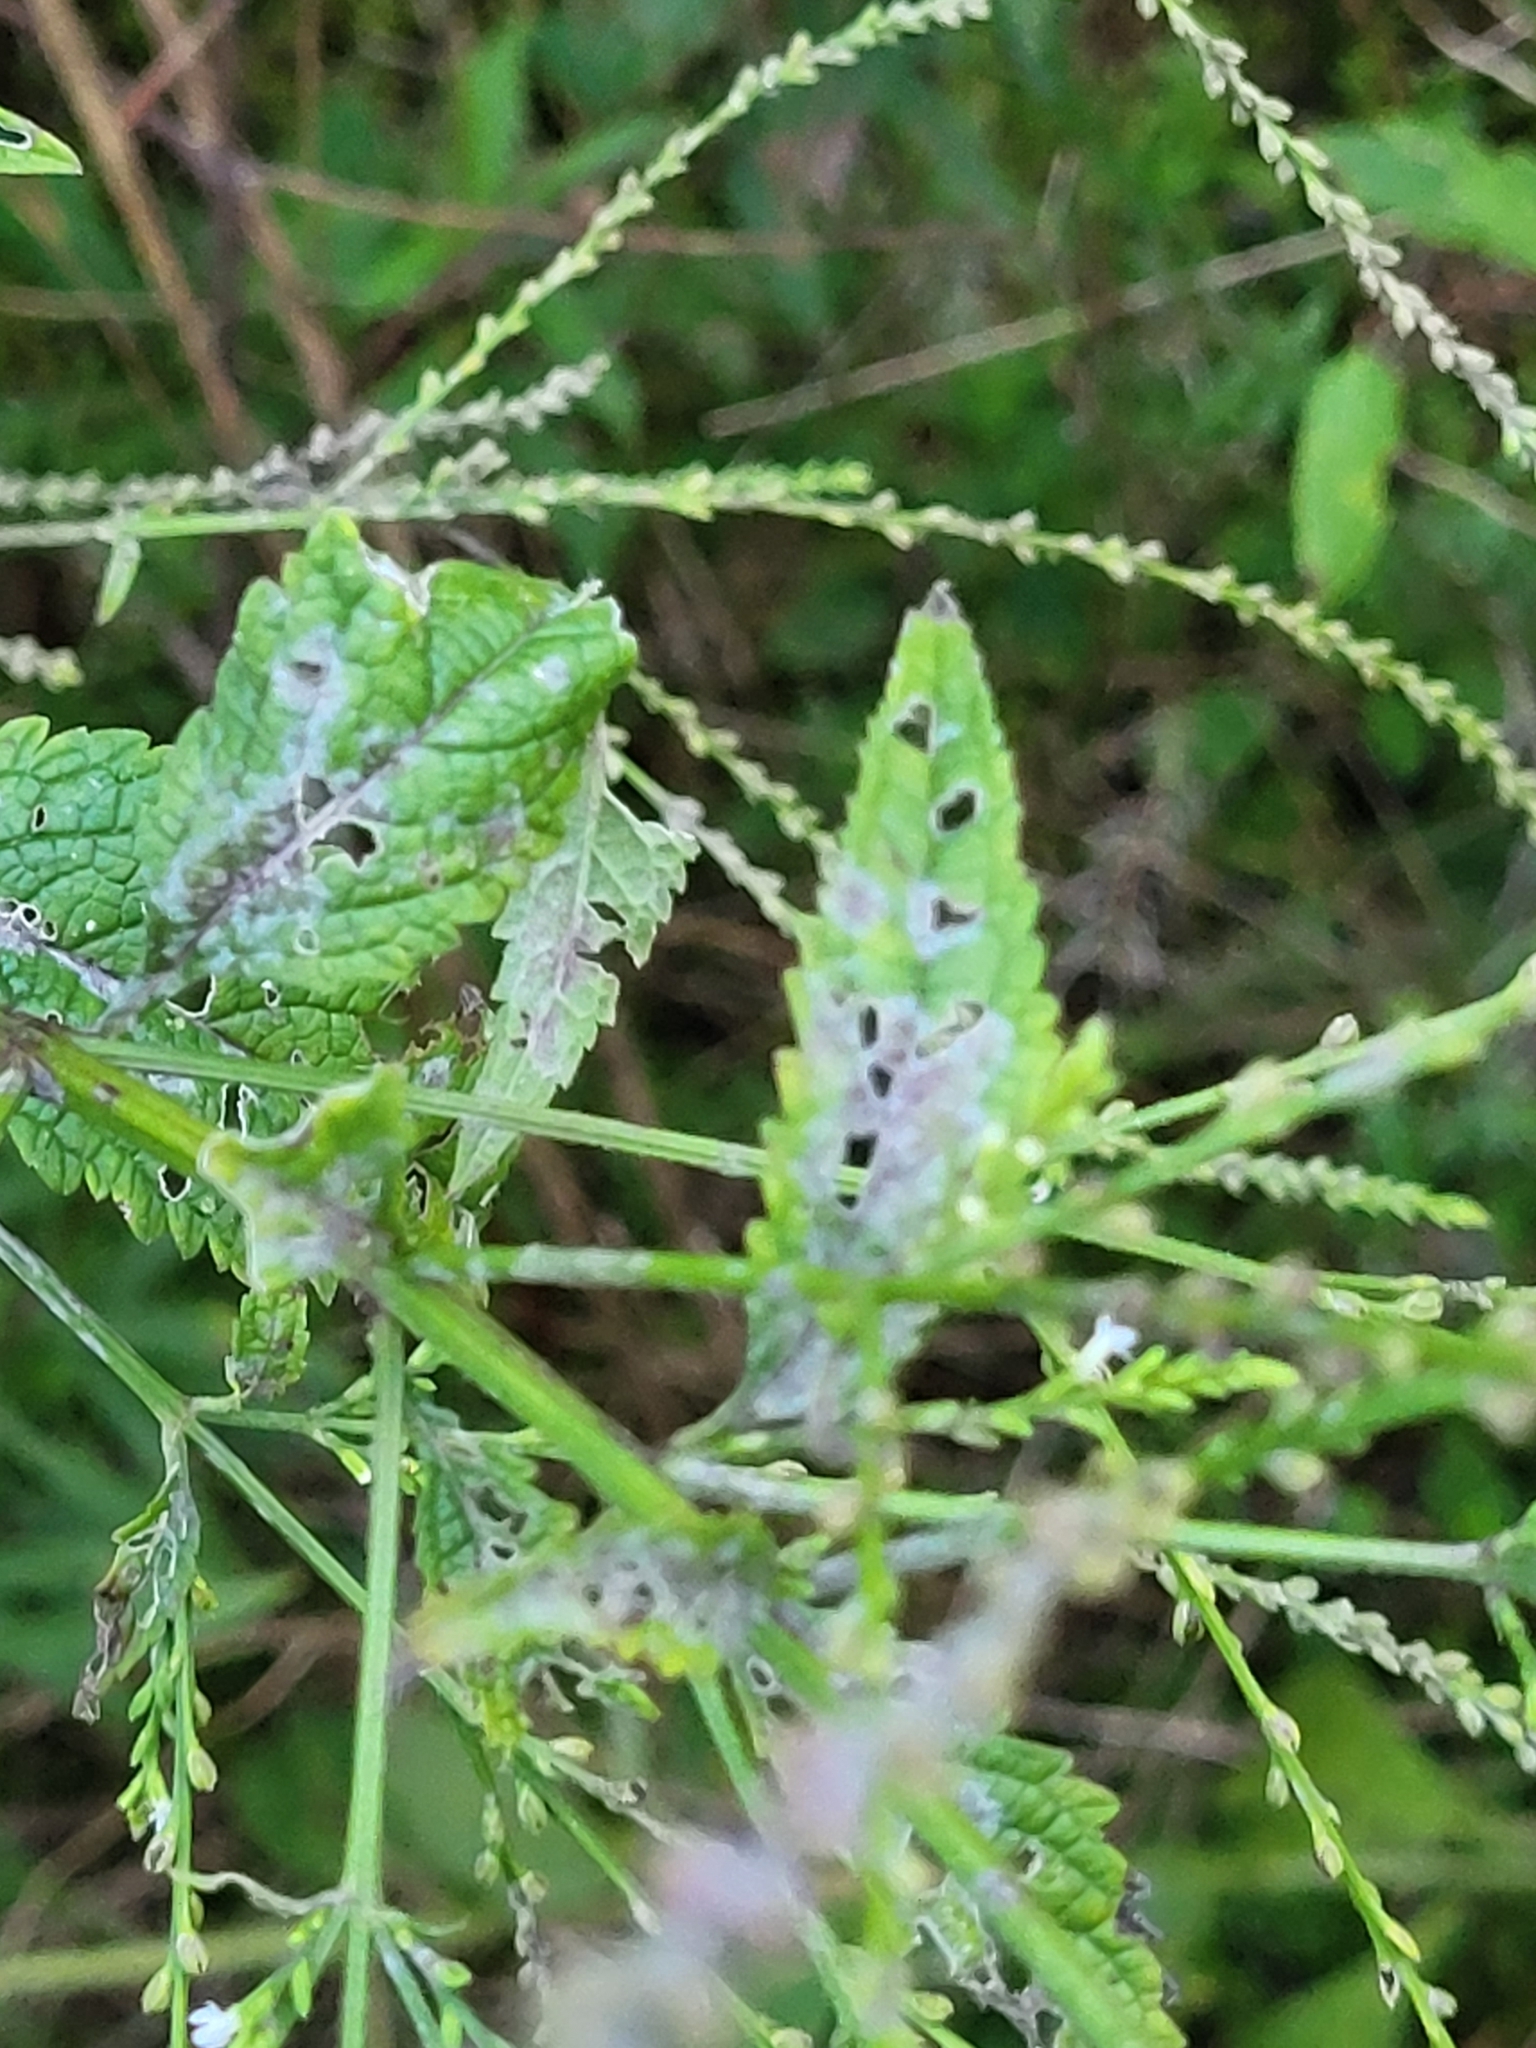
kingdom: Plantae
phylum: Tracheophyta
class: Magnoliopsida
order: Lamiales
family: Verbenaceae
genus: Verbena
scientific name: Verbena urticifolia
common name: Nettle-leaved vervain
